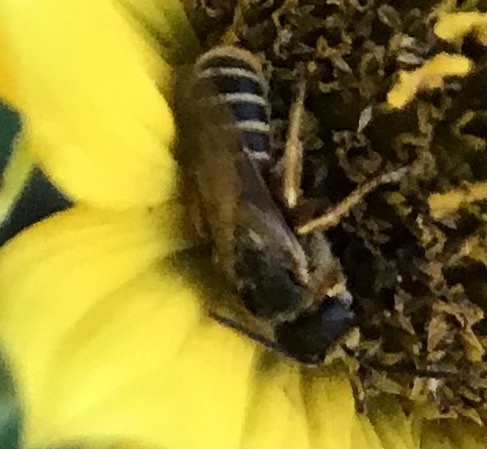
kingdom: Animalia
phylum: Arthropoda
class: Insecta
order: Hymenoptera
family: Halictidae
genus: Halictus
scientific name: Halictus ligatus
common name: Ligated furrow bee
